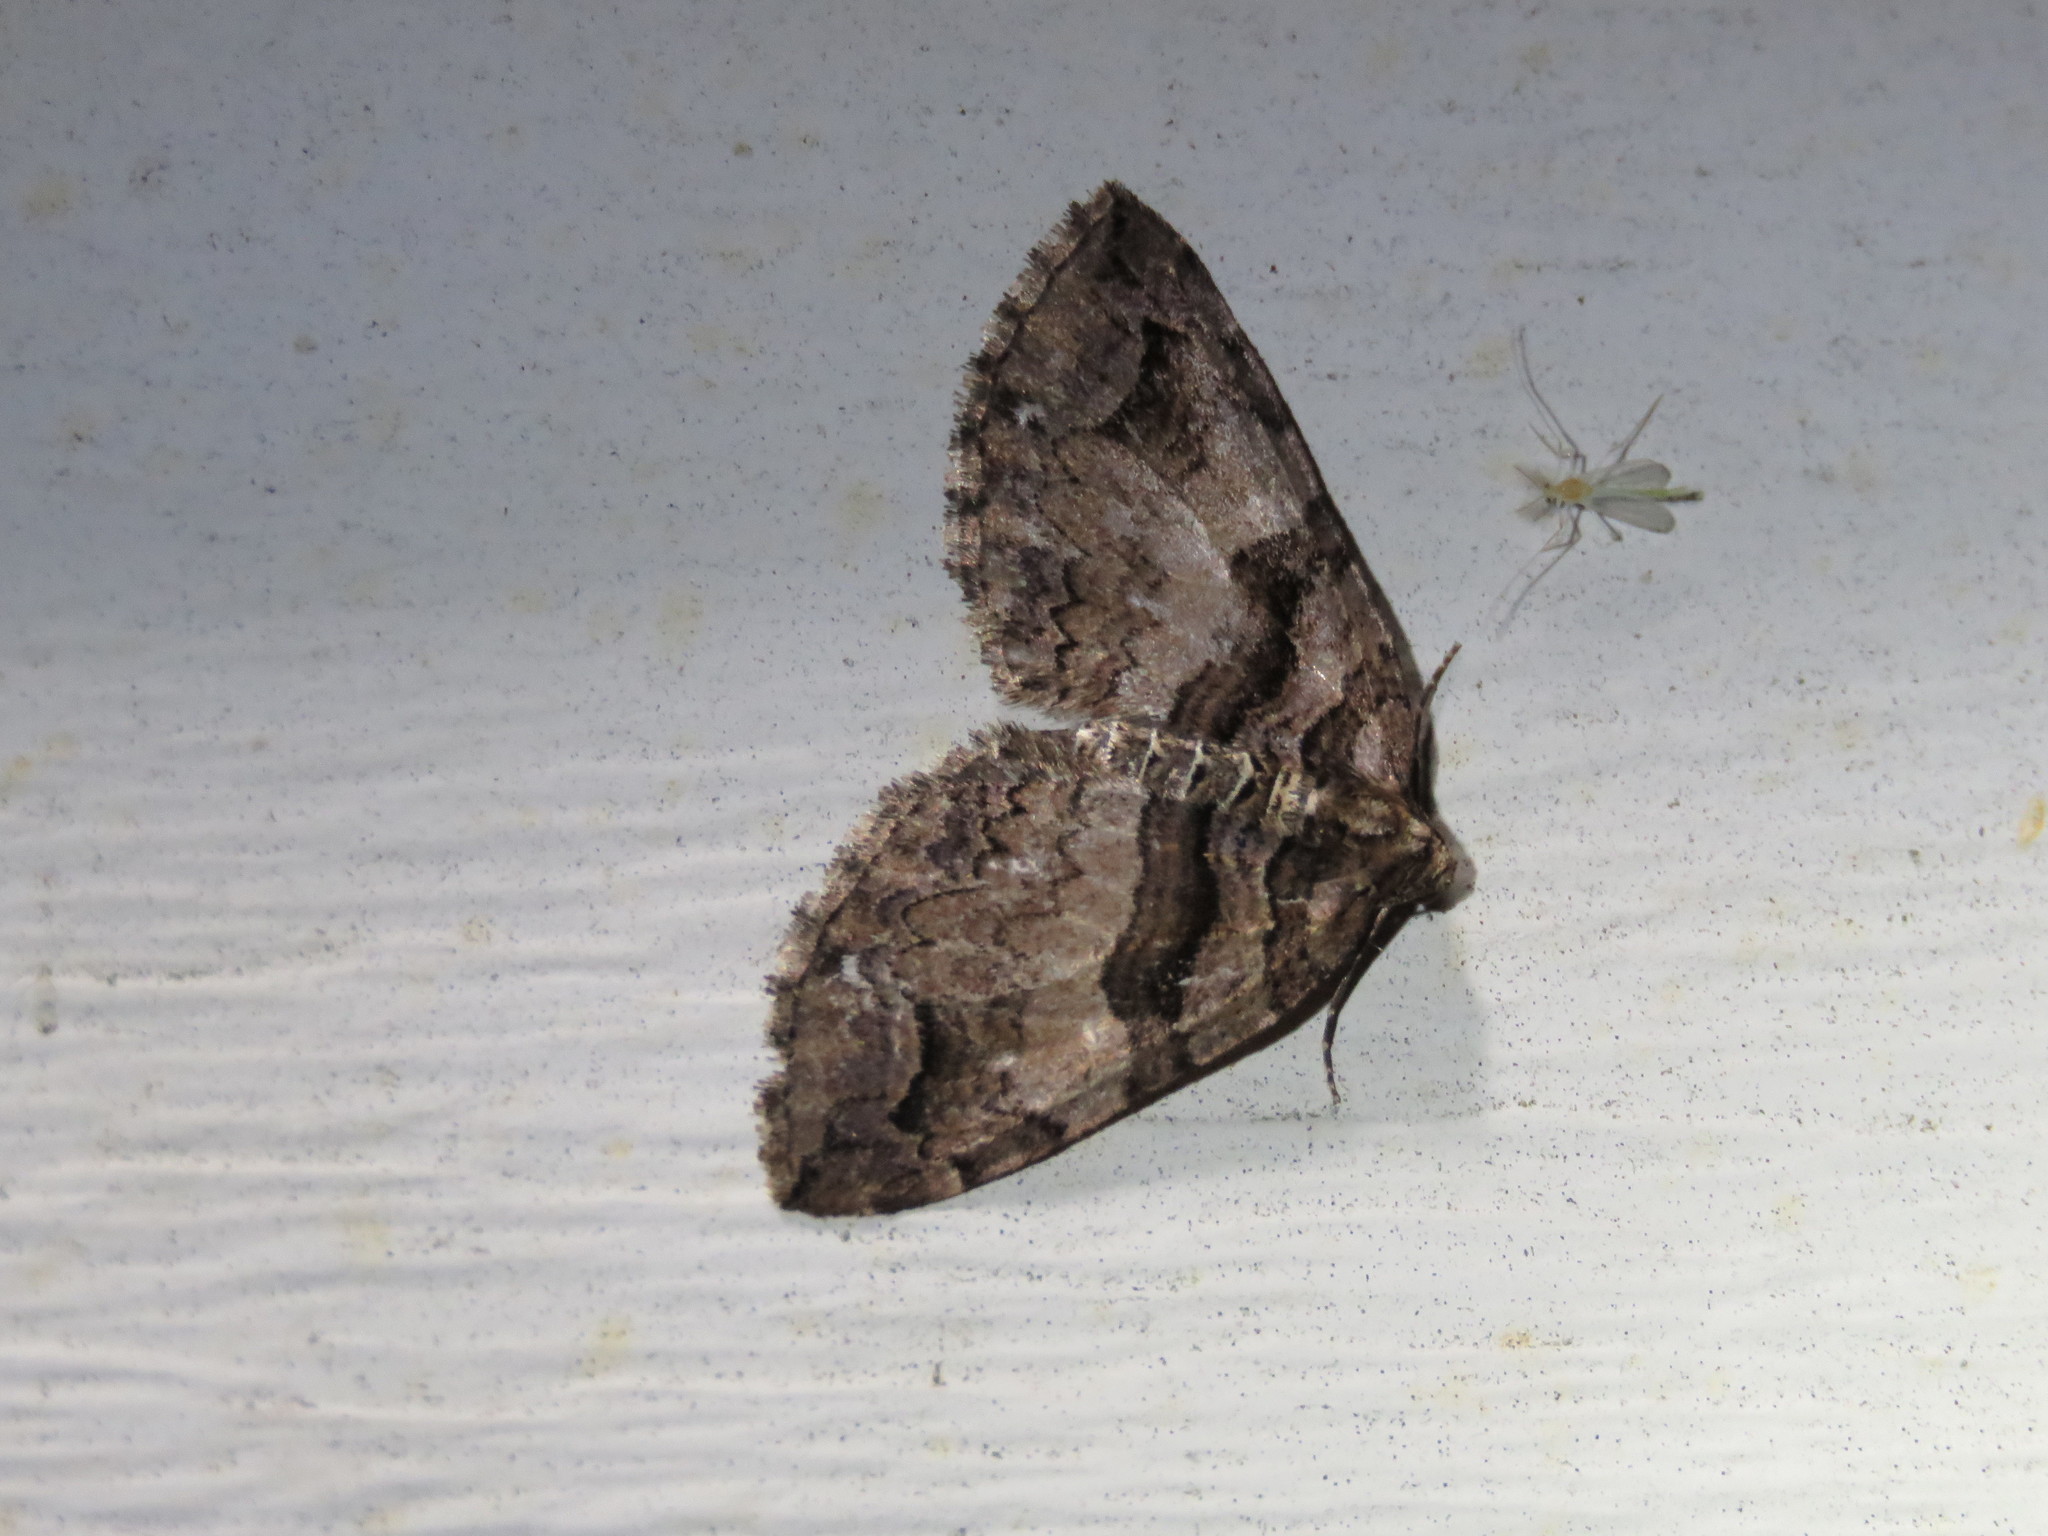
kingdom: Animalia
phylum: Arthropoda
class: Insecta
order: Lepidoptera
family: Geometridae
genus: Anticlea
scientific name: Anticlea vasiliata
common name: Variable carpet
